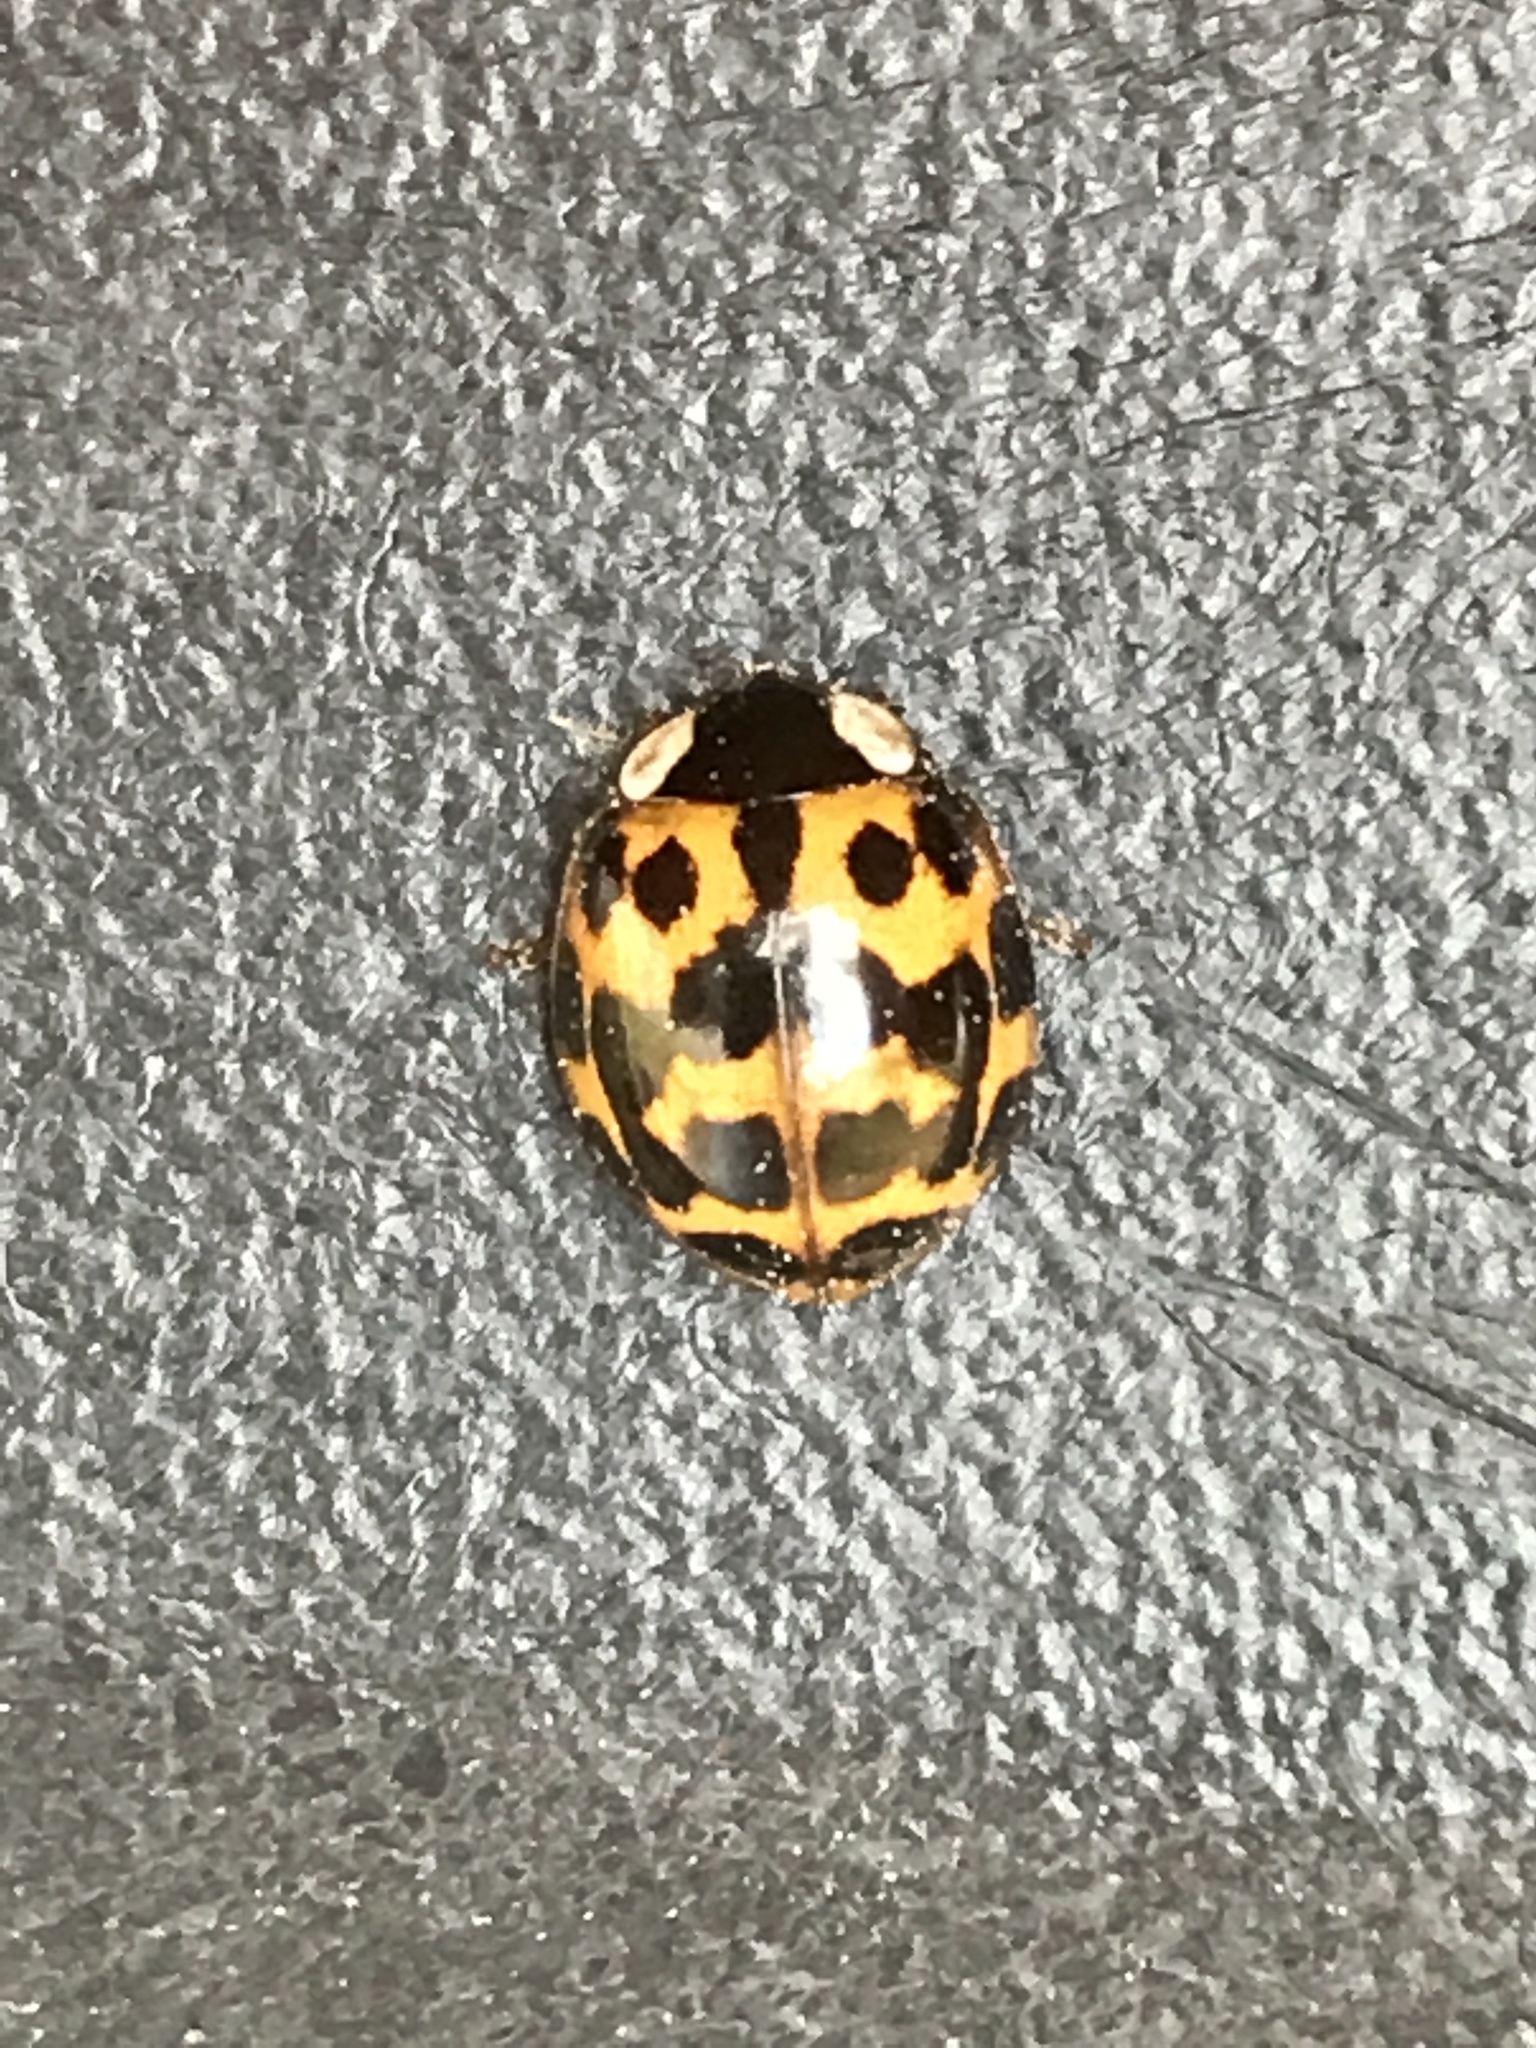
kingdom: Animalia
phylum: Arthropoda
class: Insecta
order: Coleoptera
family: Coccinellidae
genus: Harmonia
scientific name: Harmonia axyridis
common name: Harlequin ladybird
